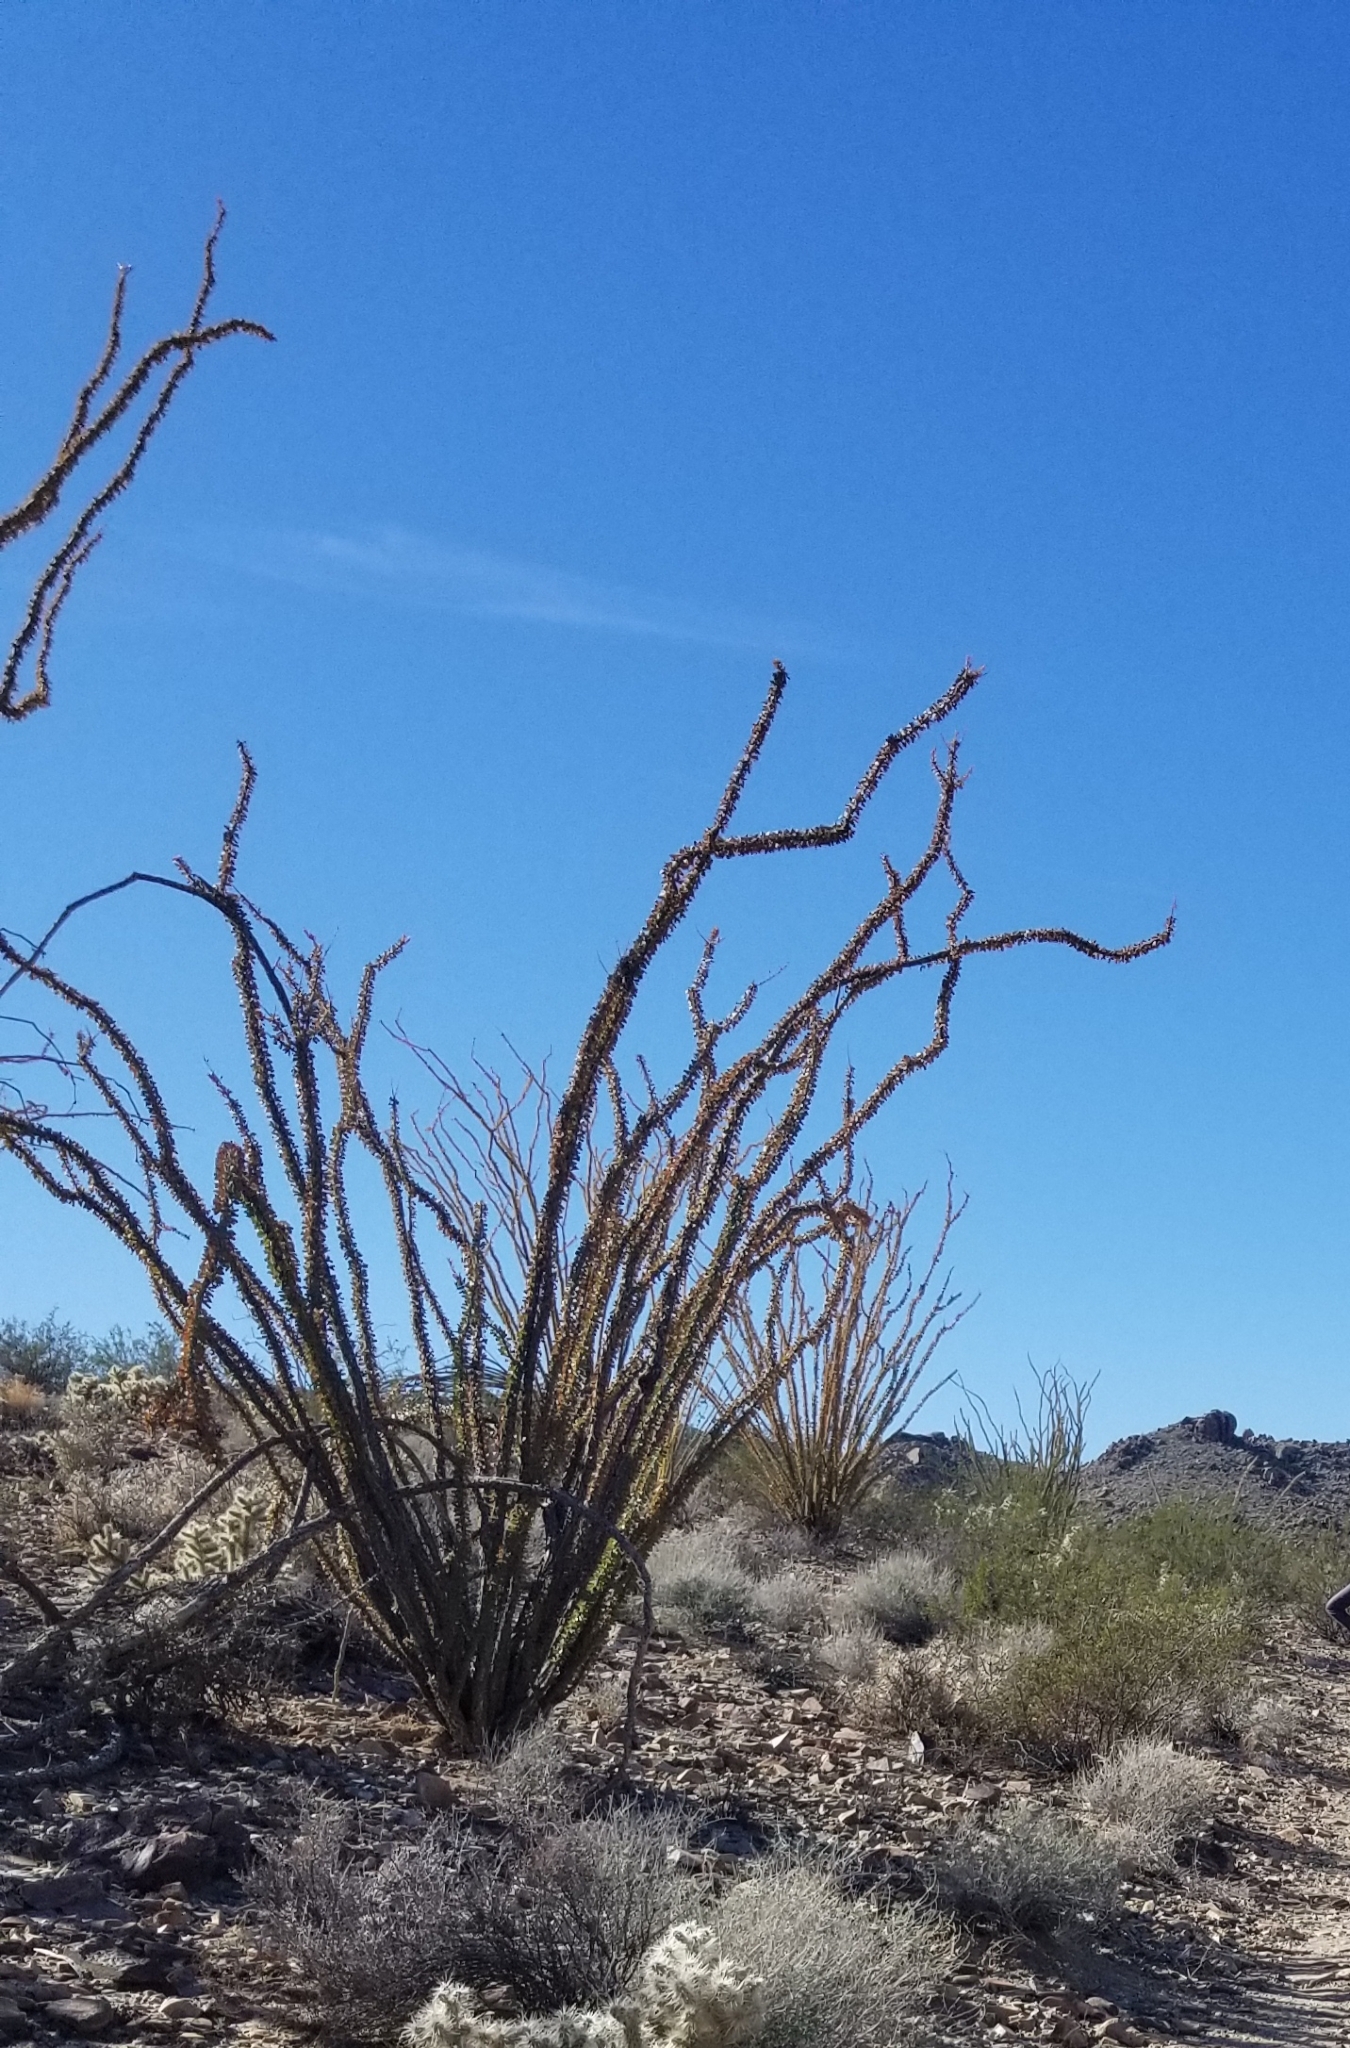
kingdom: Plantae
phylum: Tracheophyta
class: Magnoliopsida
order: Ericales
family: Fouquieriaceae
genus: Fouquieria
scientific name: Fouquieria splendens
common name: Vine-cactus
